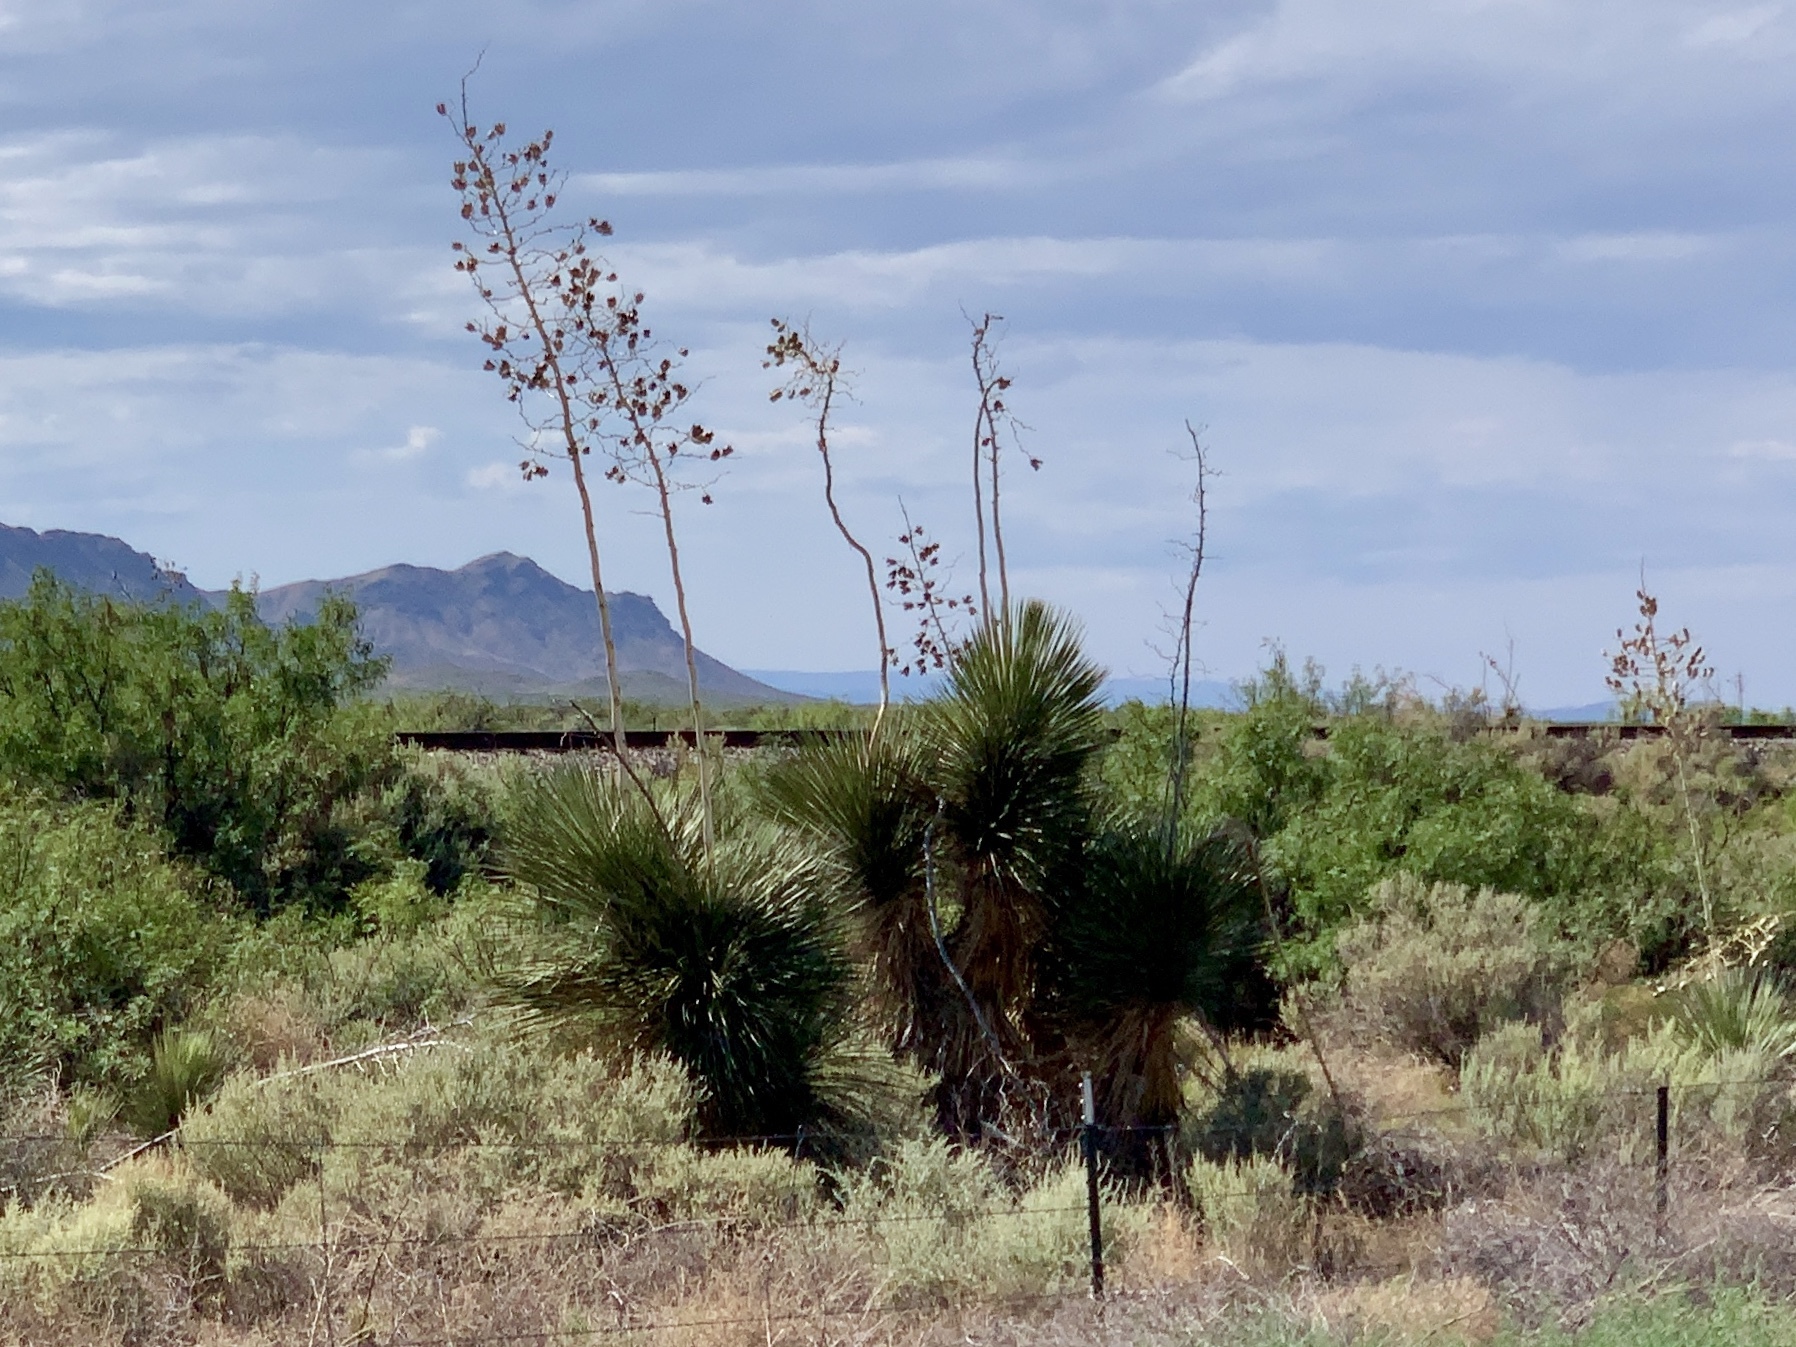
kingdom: Plantae
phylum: Tracheophyta
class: Liliopsida
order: Asparagales
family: Asparagaceae
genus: Yucca
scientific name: Yucca elata
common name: Palmella
